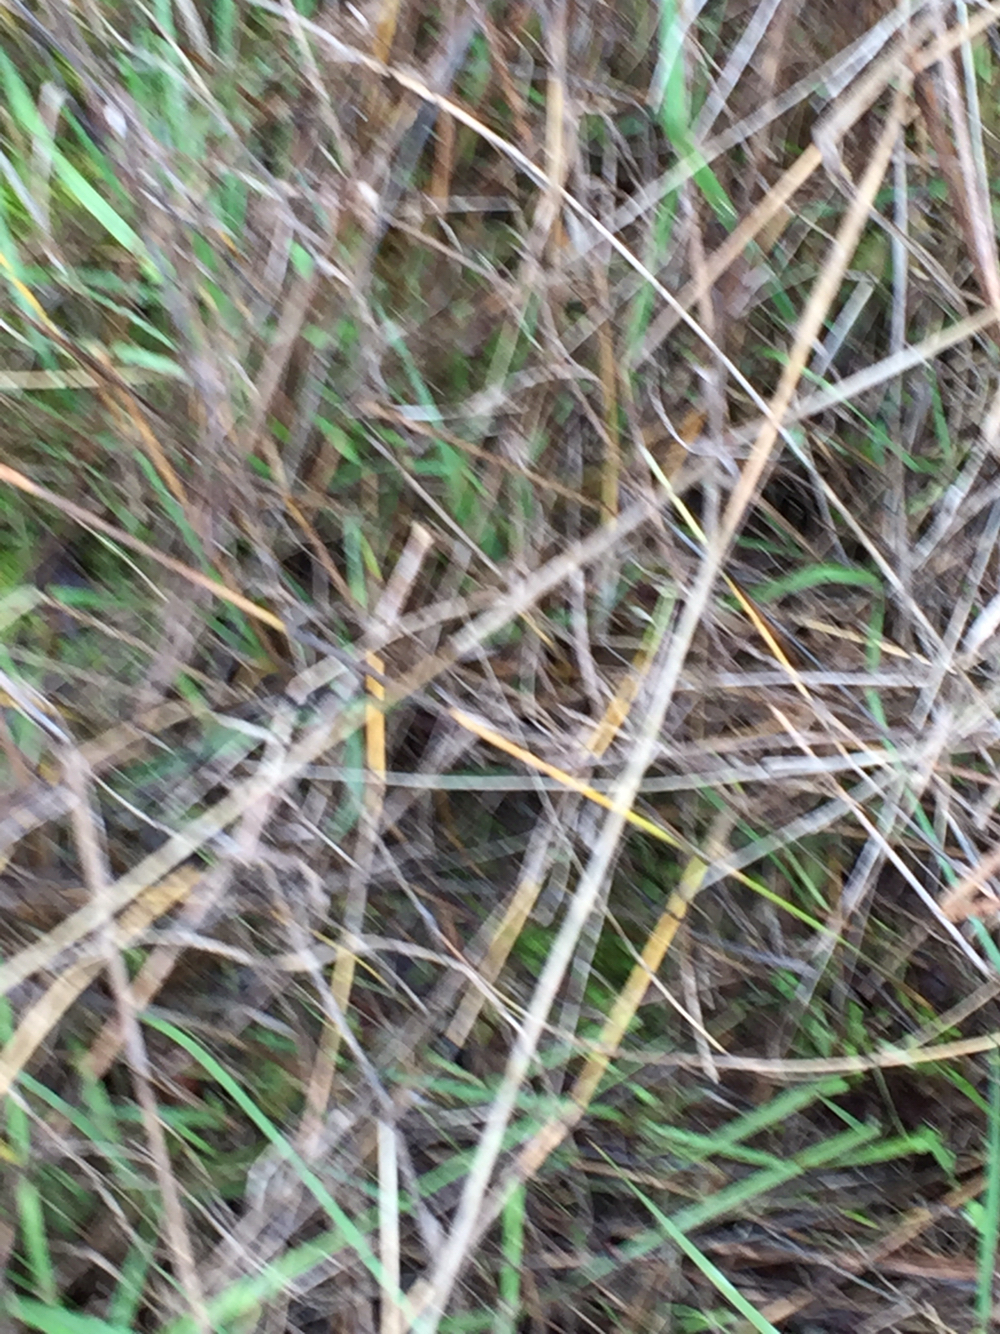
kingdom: Animalia
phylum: Chordata
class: Amphibia
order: Caudata
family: Salamandridae
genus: Taricha
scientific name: Taricha torosa
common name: California newt
